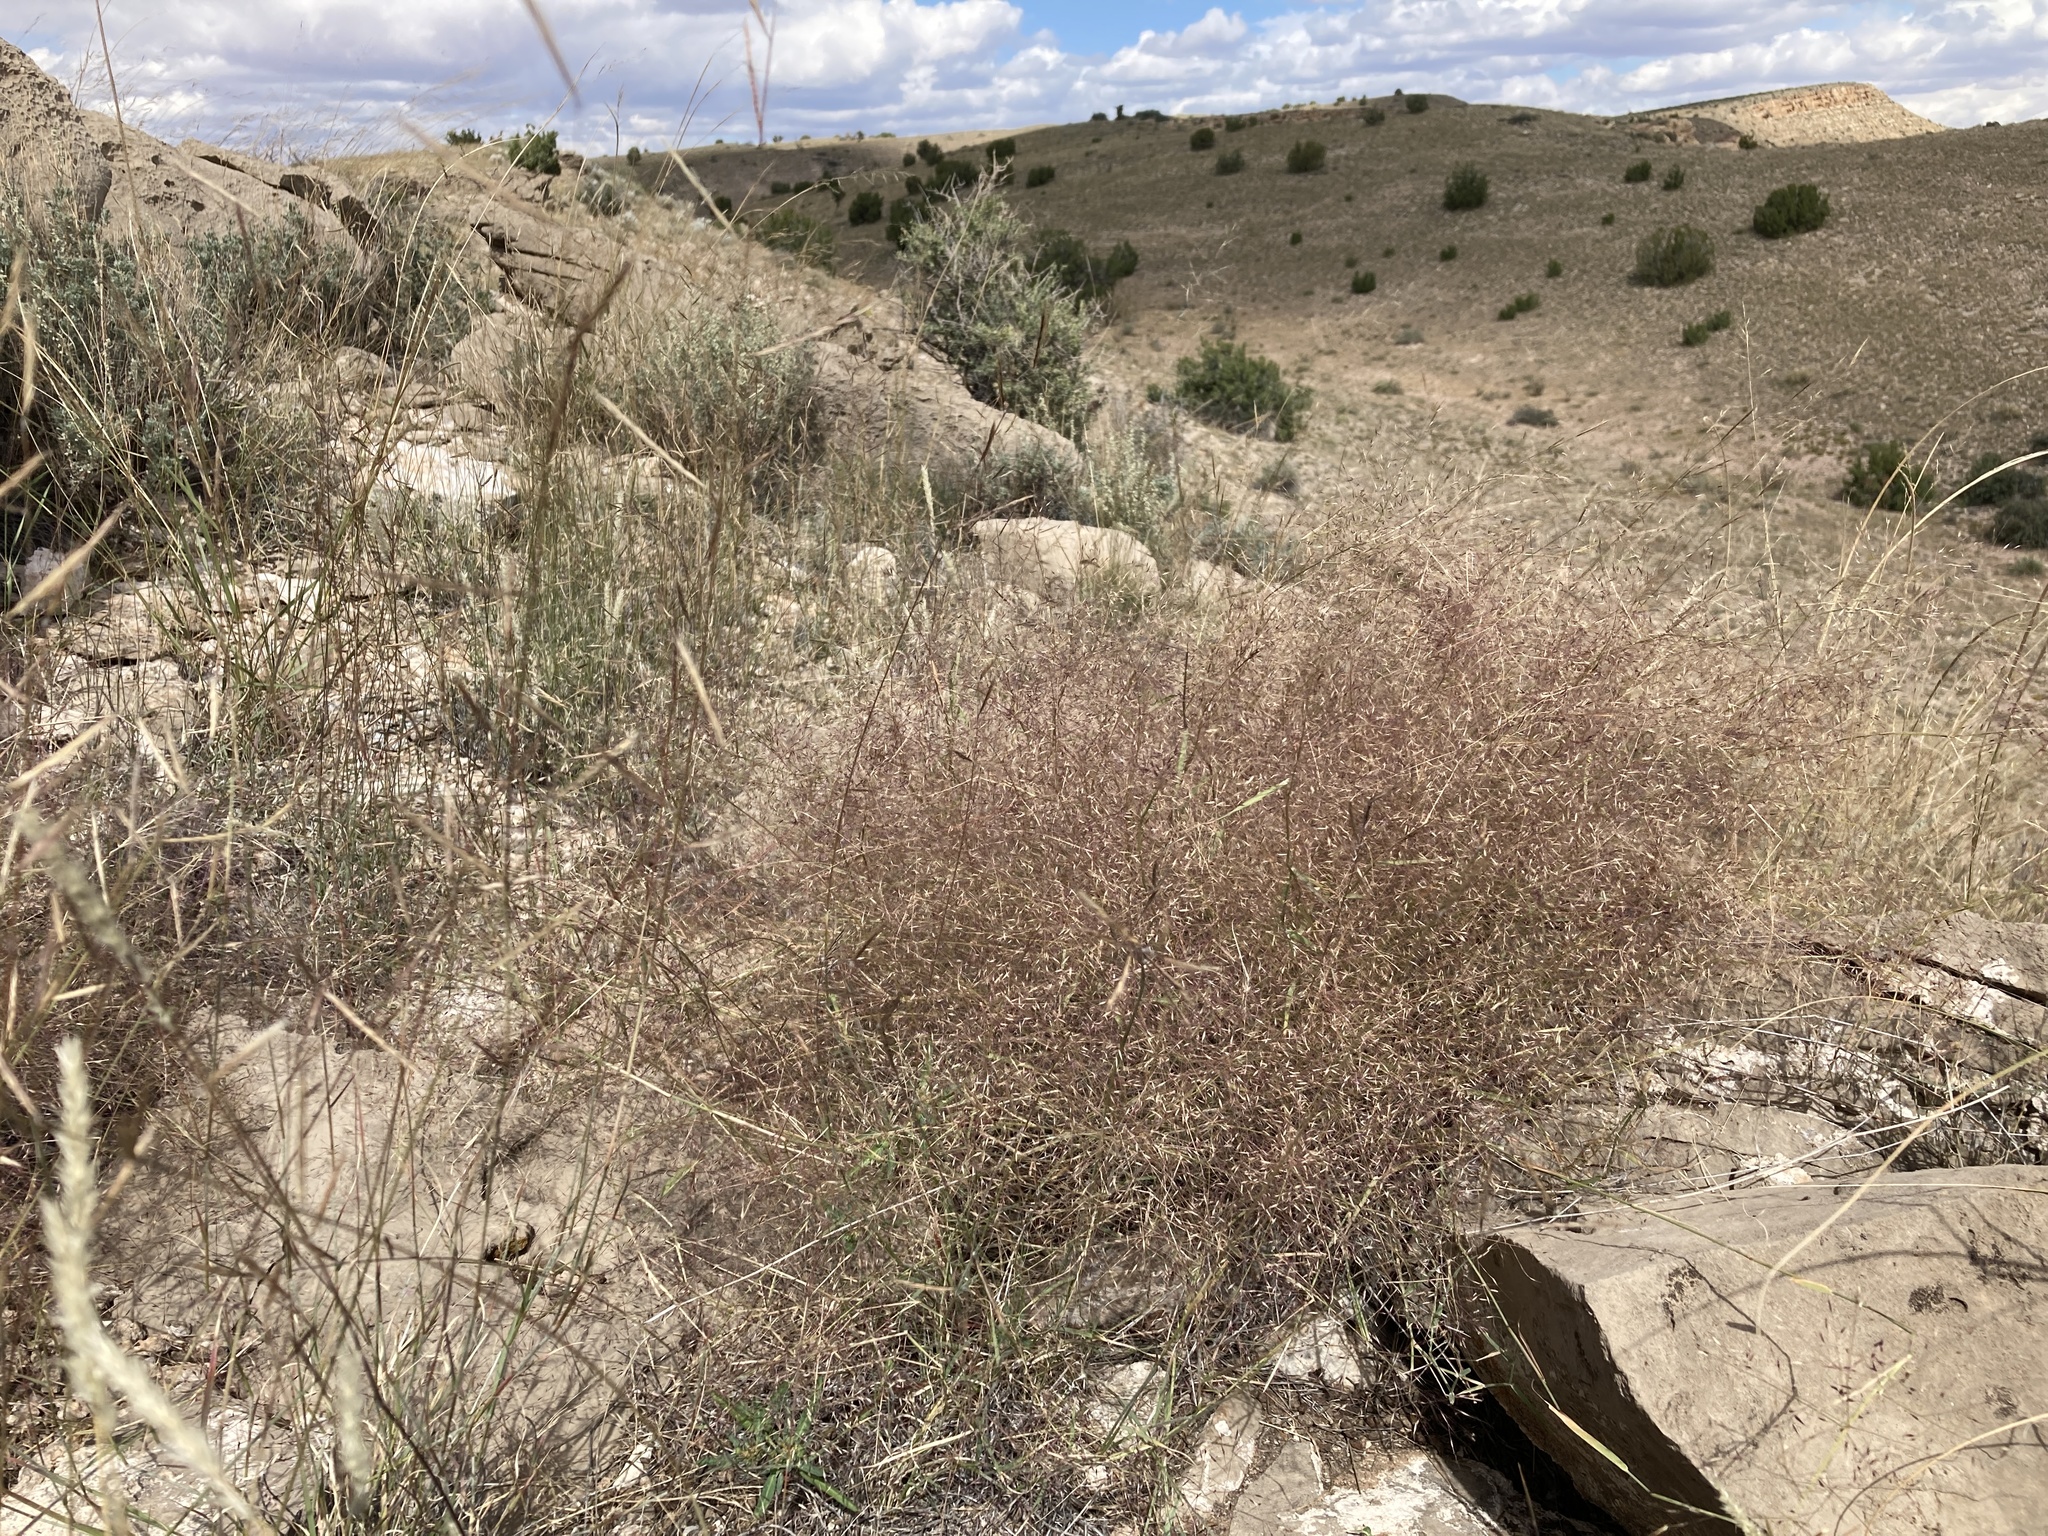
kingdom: Plantae
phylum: Tracheophyta
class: Liliopsida
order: Poales
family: Poaceae
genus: Muhlenbergia
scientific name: Muhlenbergia porteri
